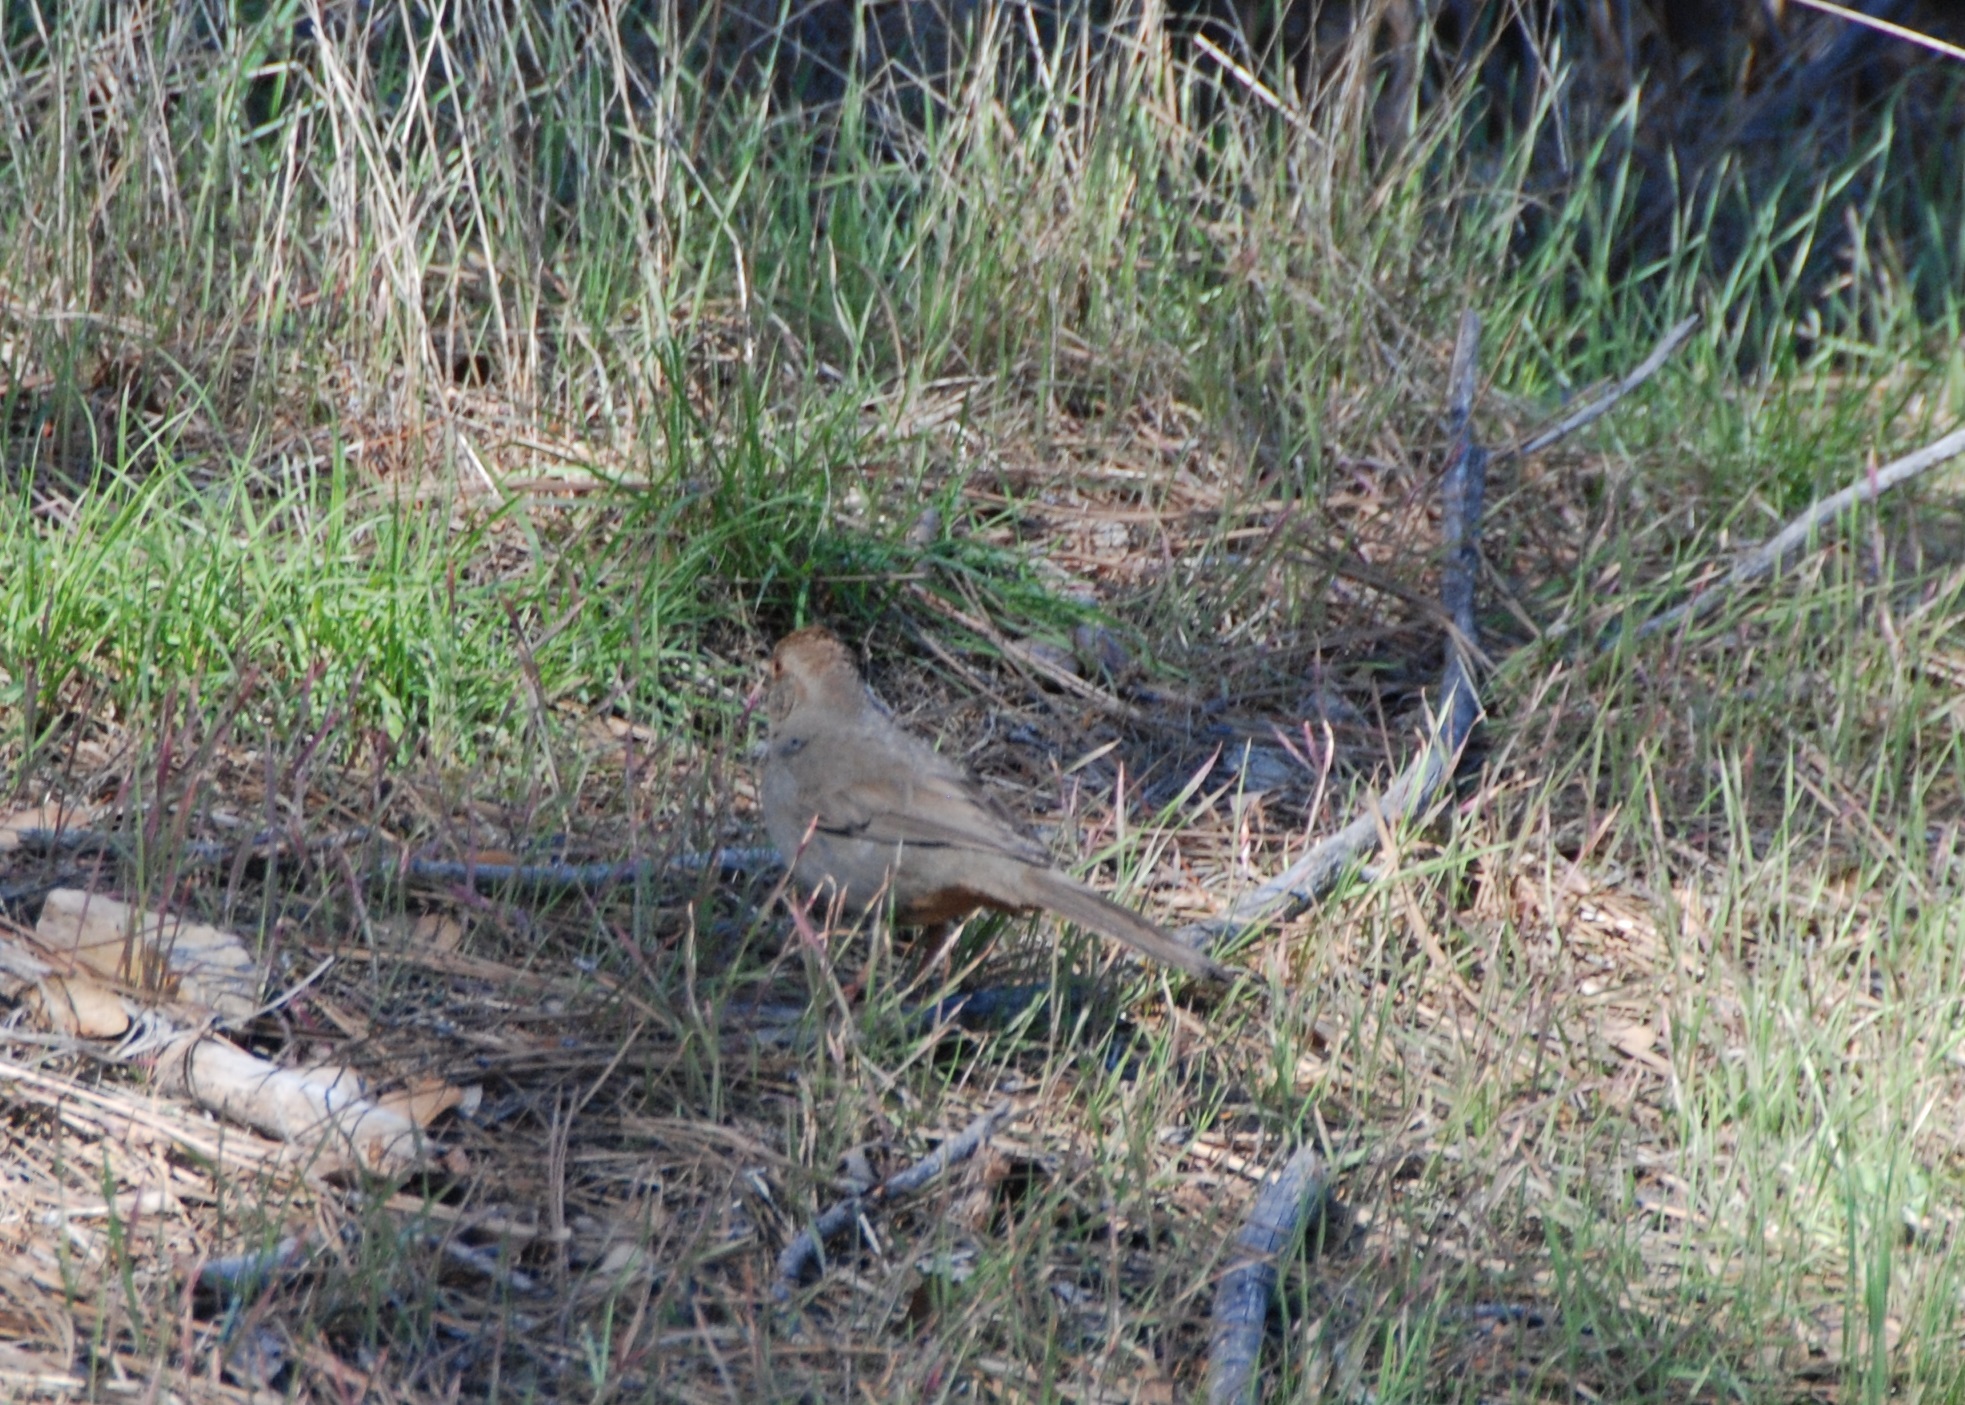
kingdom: Animalia
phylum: Chordata
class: Aves
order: Passeriformes
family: Passerellidae
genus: Melozone
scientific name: Melozone crissalis
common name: California towhee
